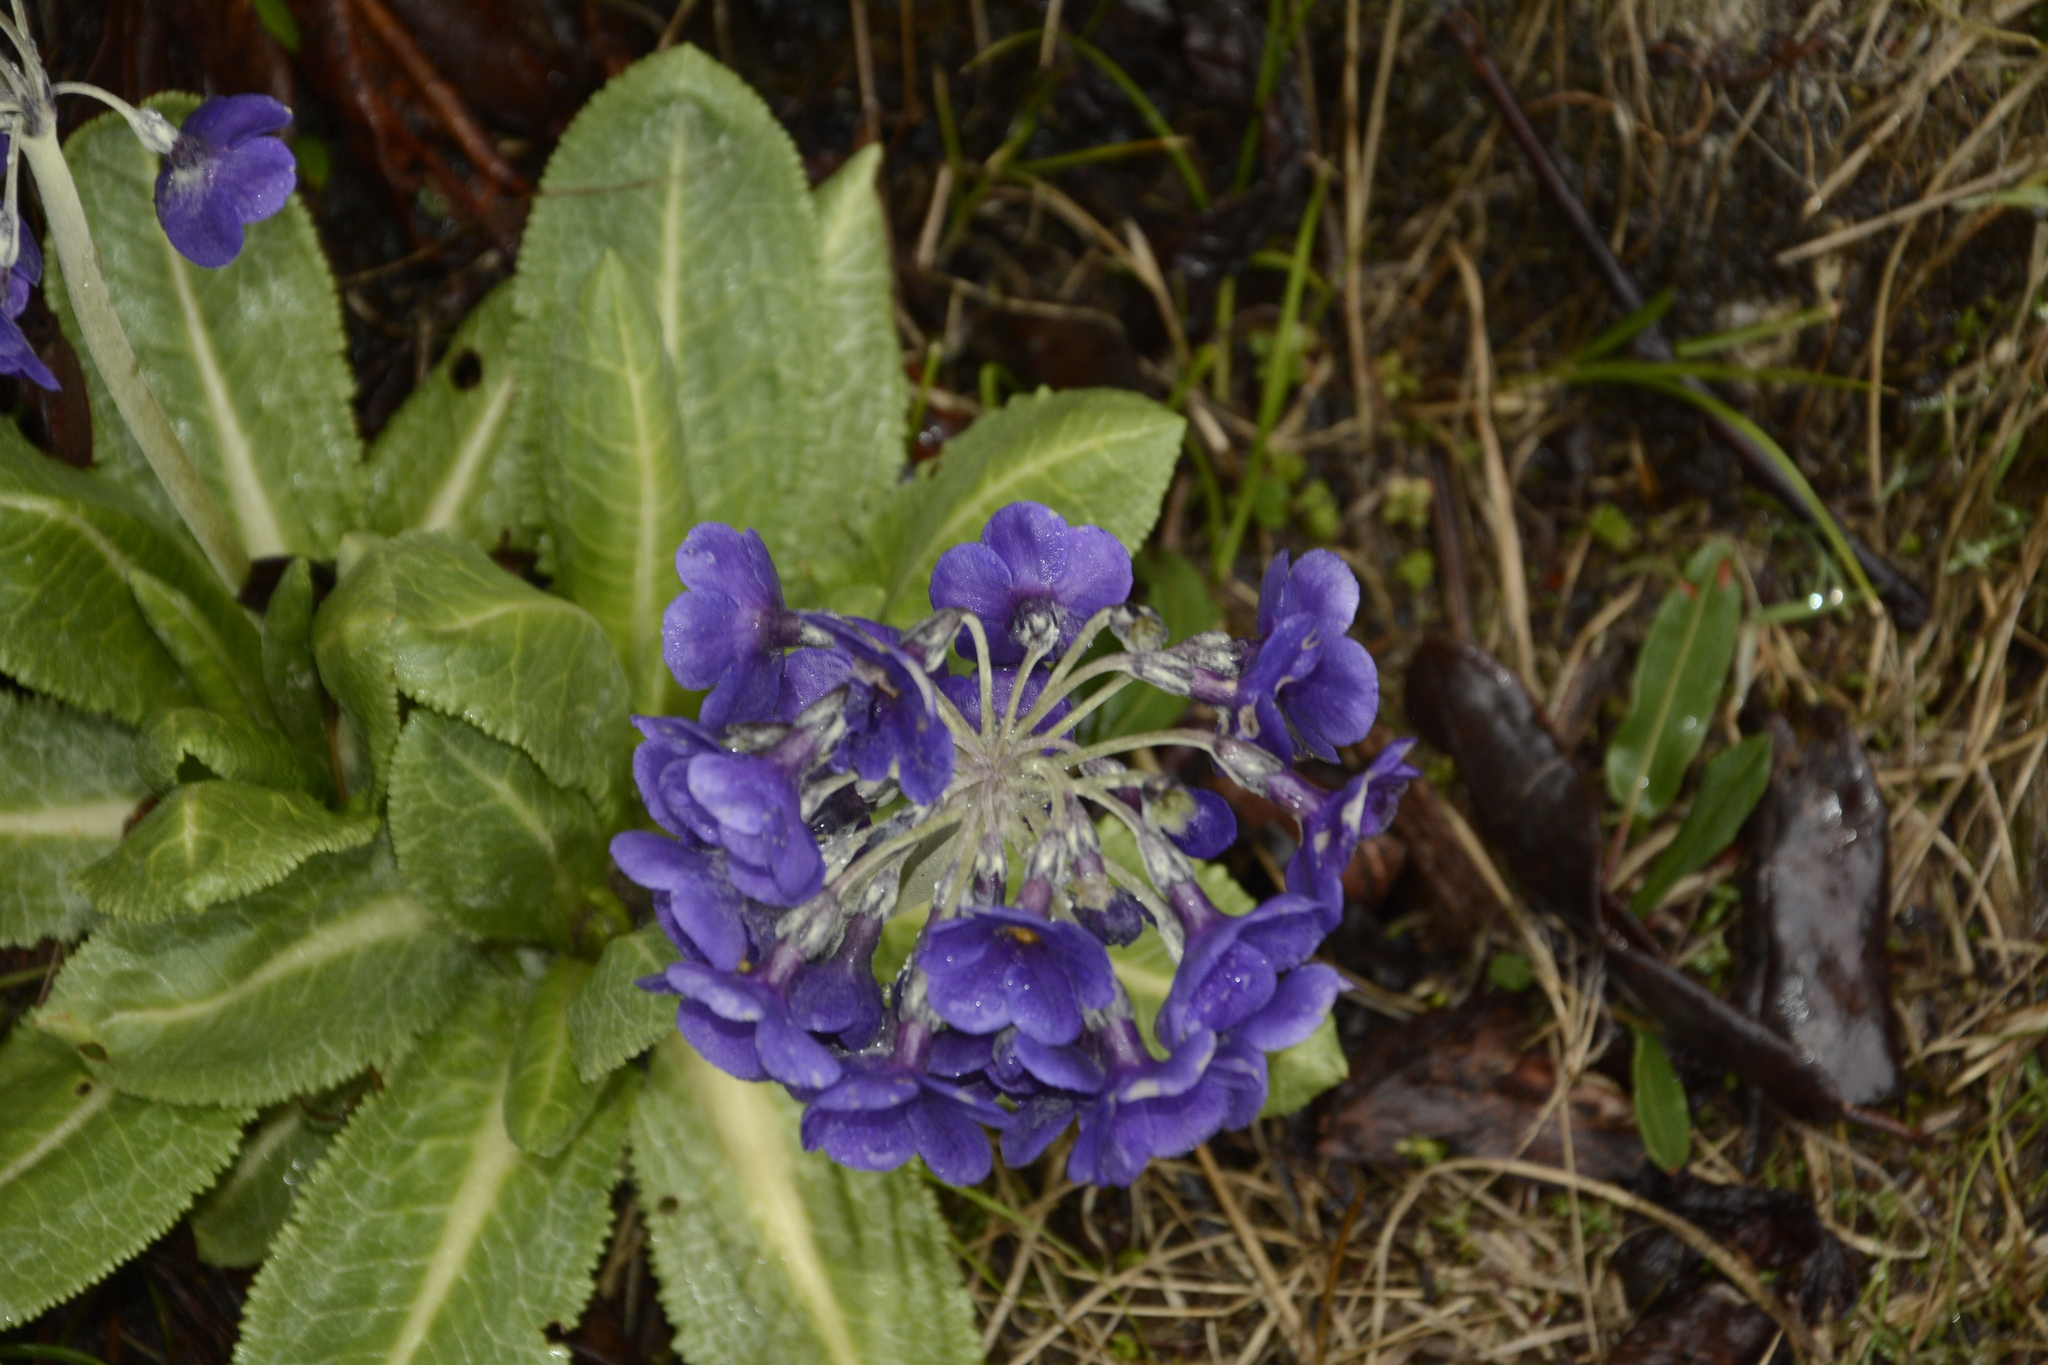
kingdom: Plantae
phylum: Tracheophyta
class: Magnoliopsida
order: Ericales
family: Primulaceae
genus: Primula
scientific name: Primula calderiana
